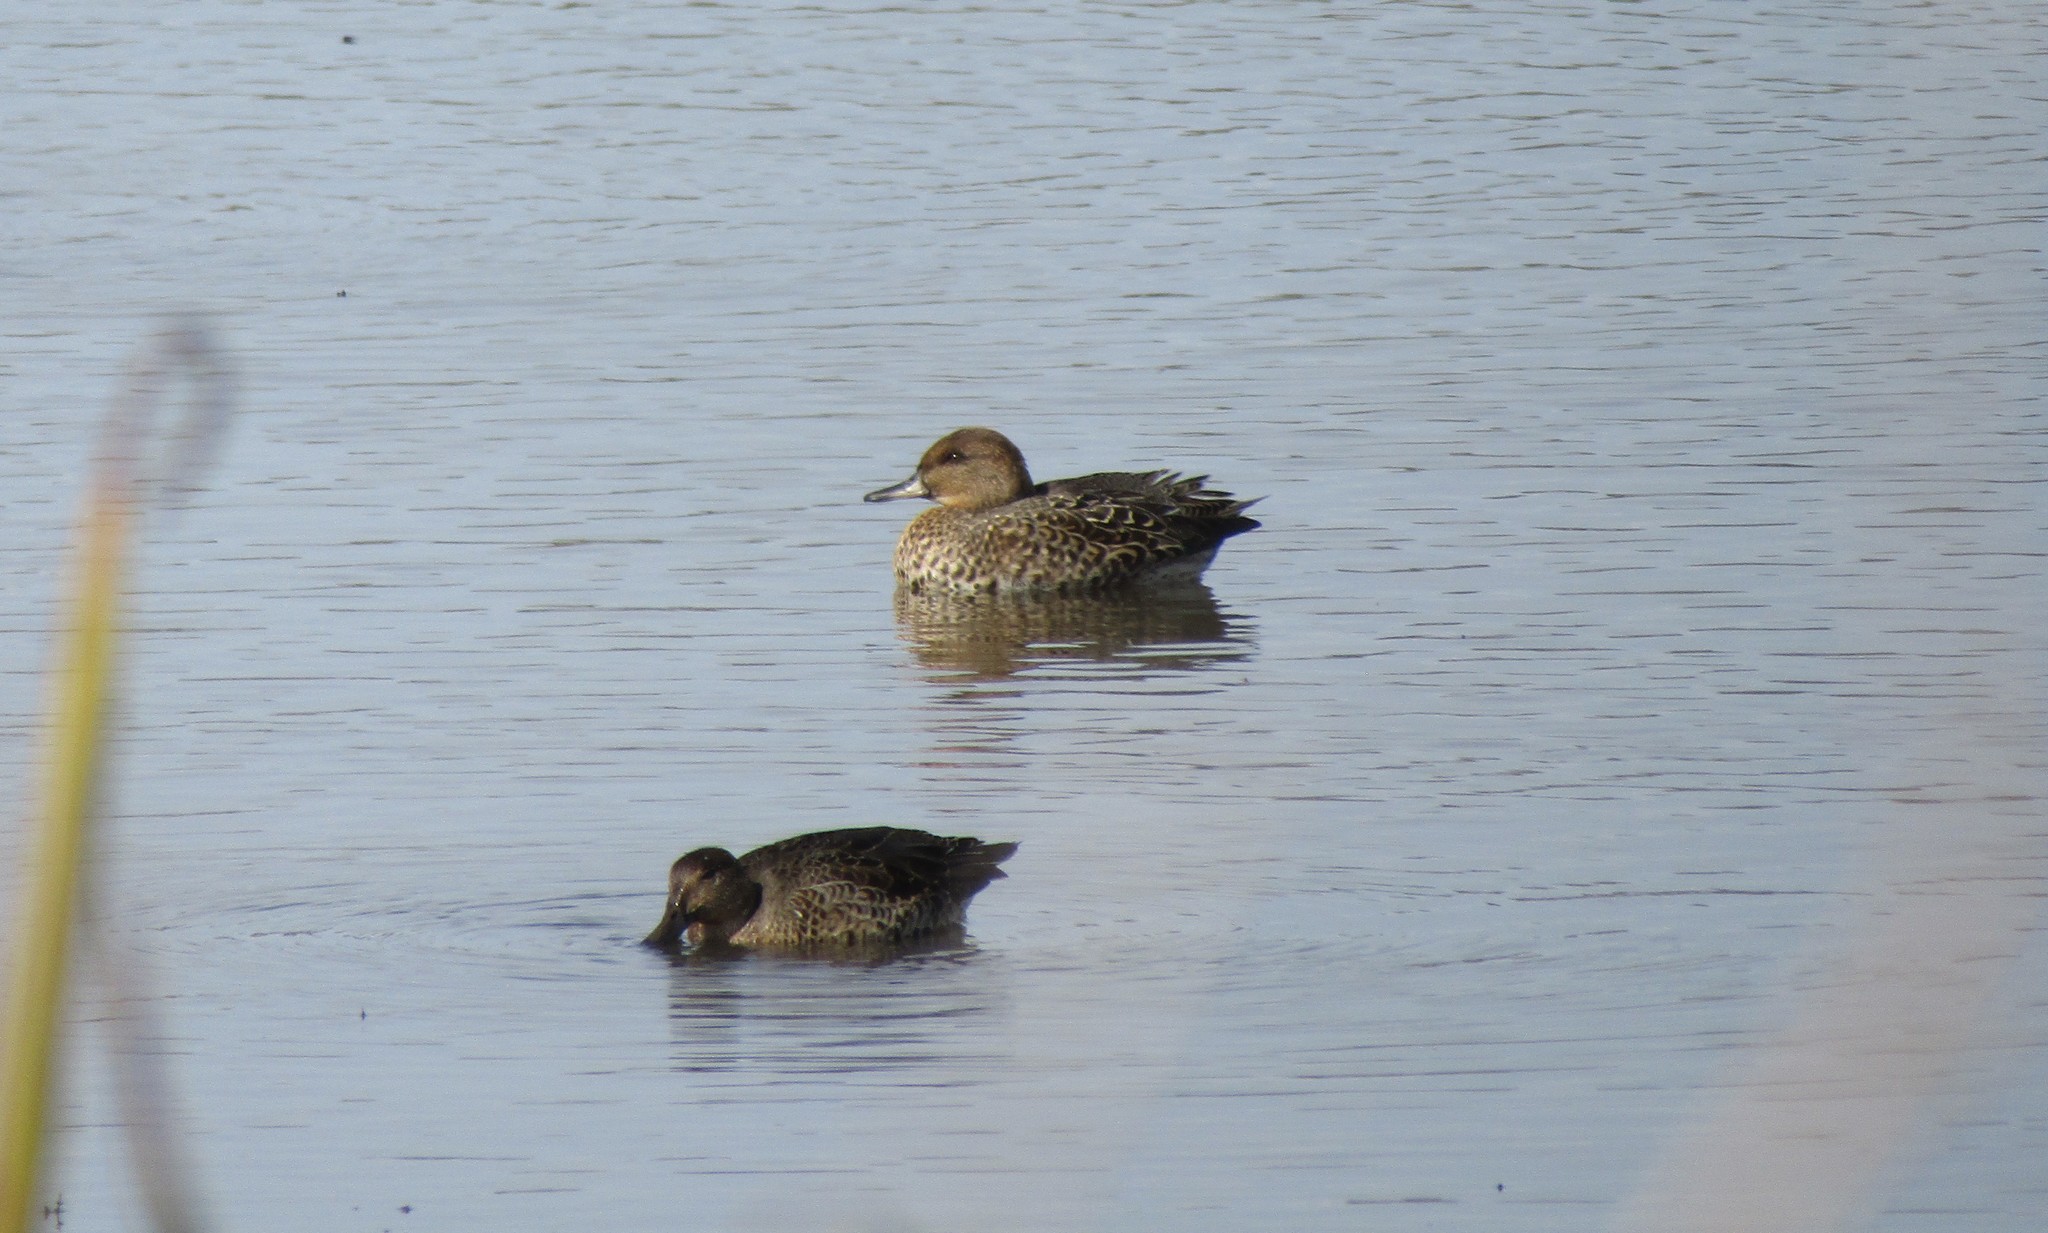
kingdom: Animalia
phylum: Chordata
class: Aves
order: Anseriformes
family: Anatidae
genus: Anas
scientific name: Anas crecca
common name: Eurasian teal
